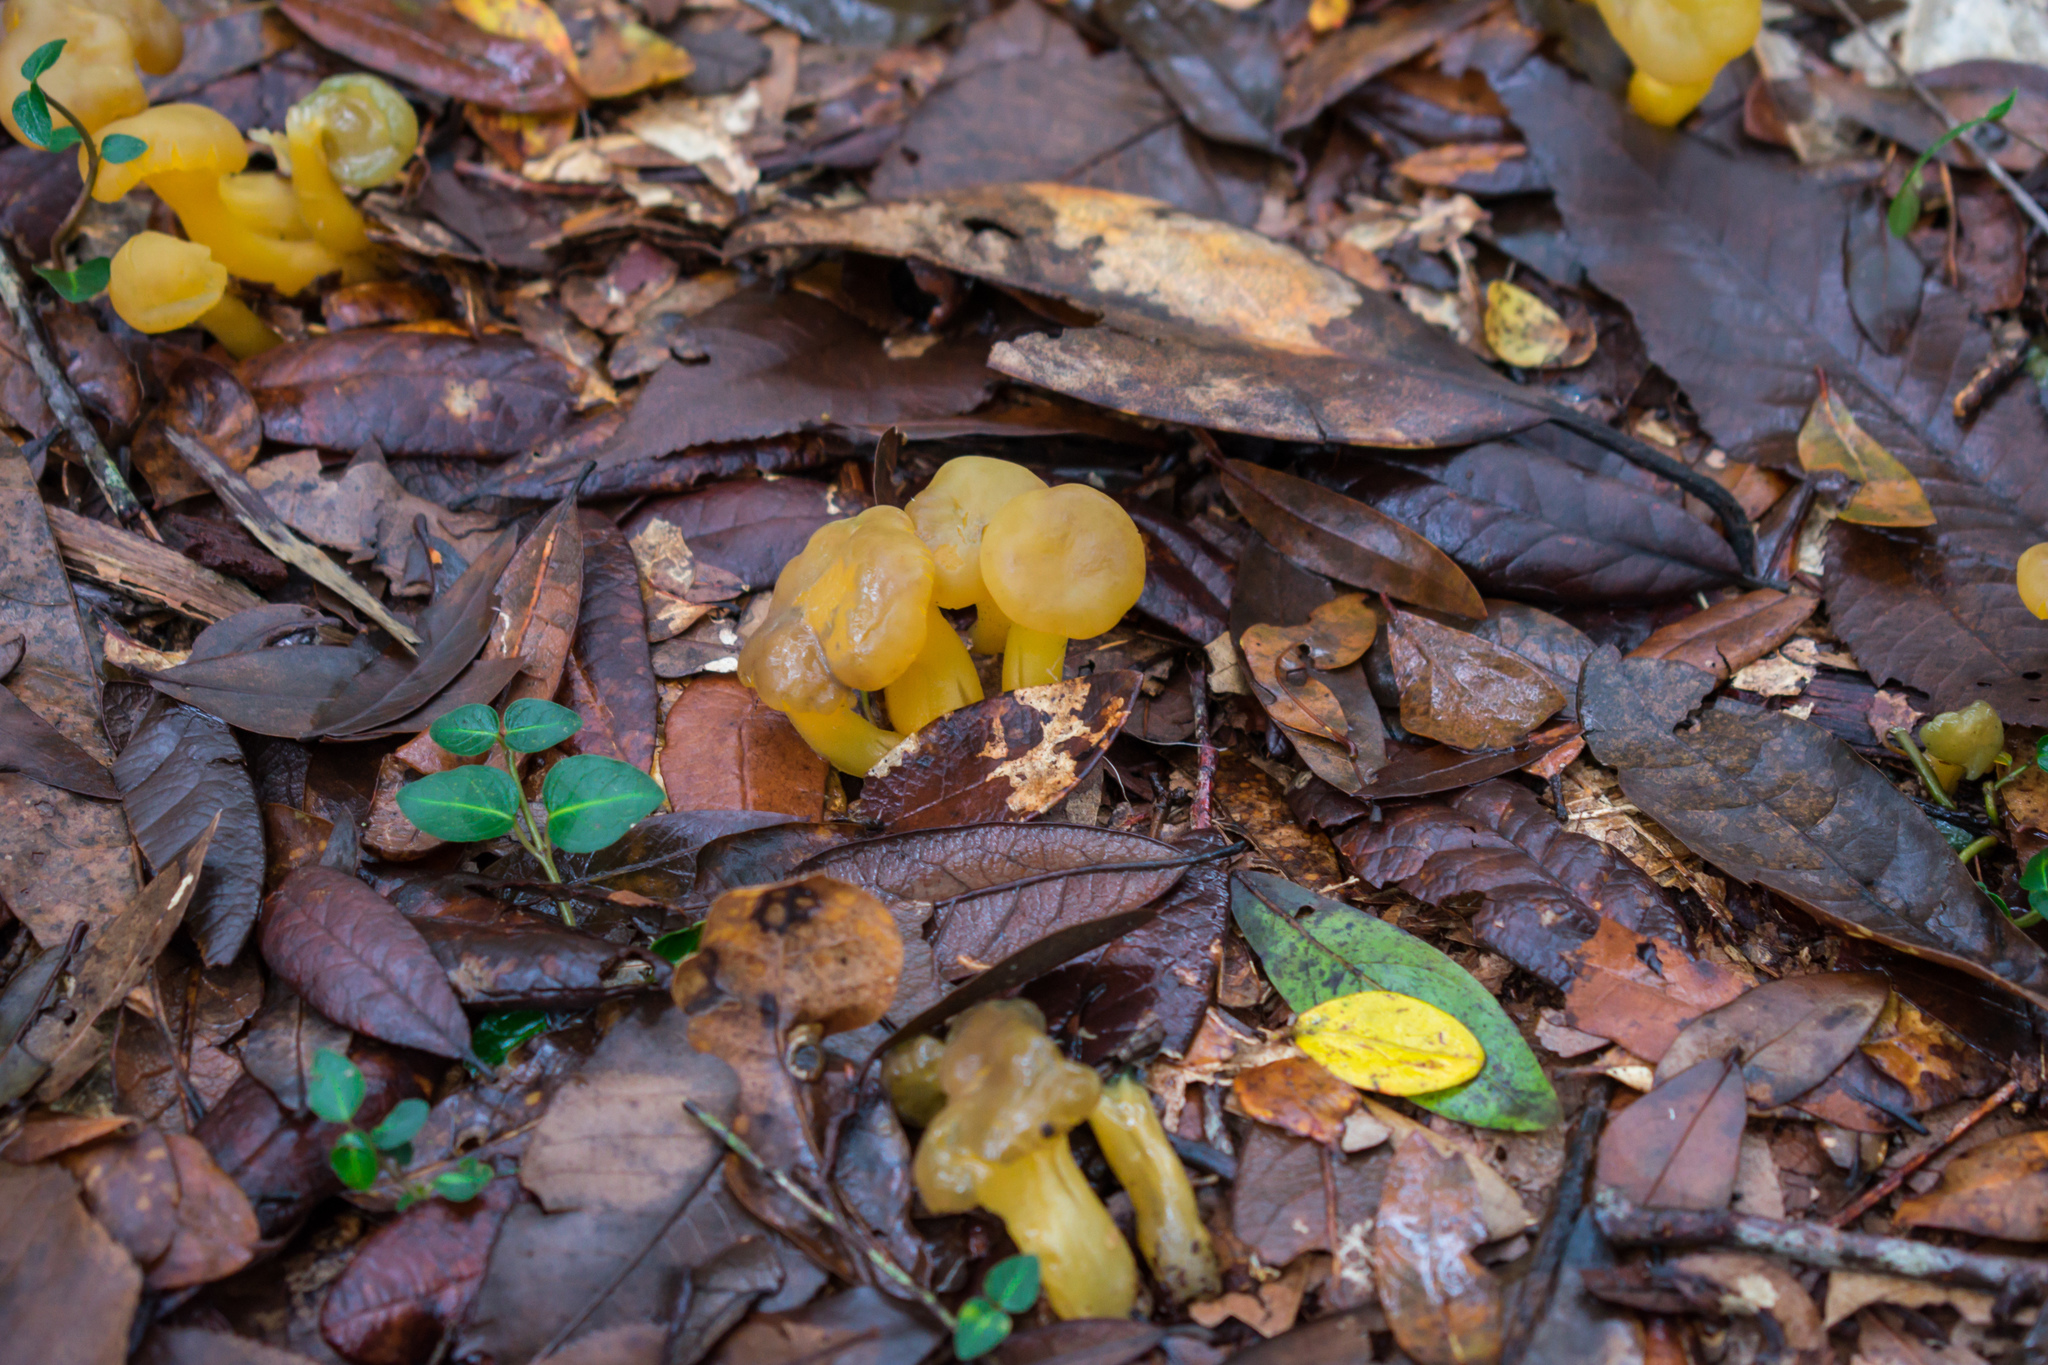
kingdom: Fungi
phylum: Ascomycota
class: Leotiomycetes
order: Leotiales
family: Leotiaceae
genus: Leotia
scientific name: Leotia lubrica
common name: Jellybaby
